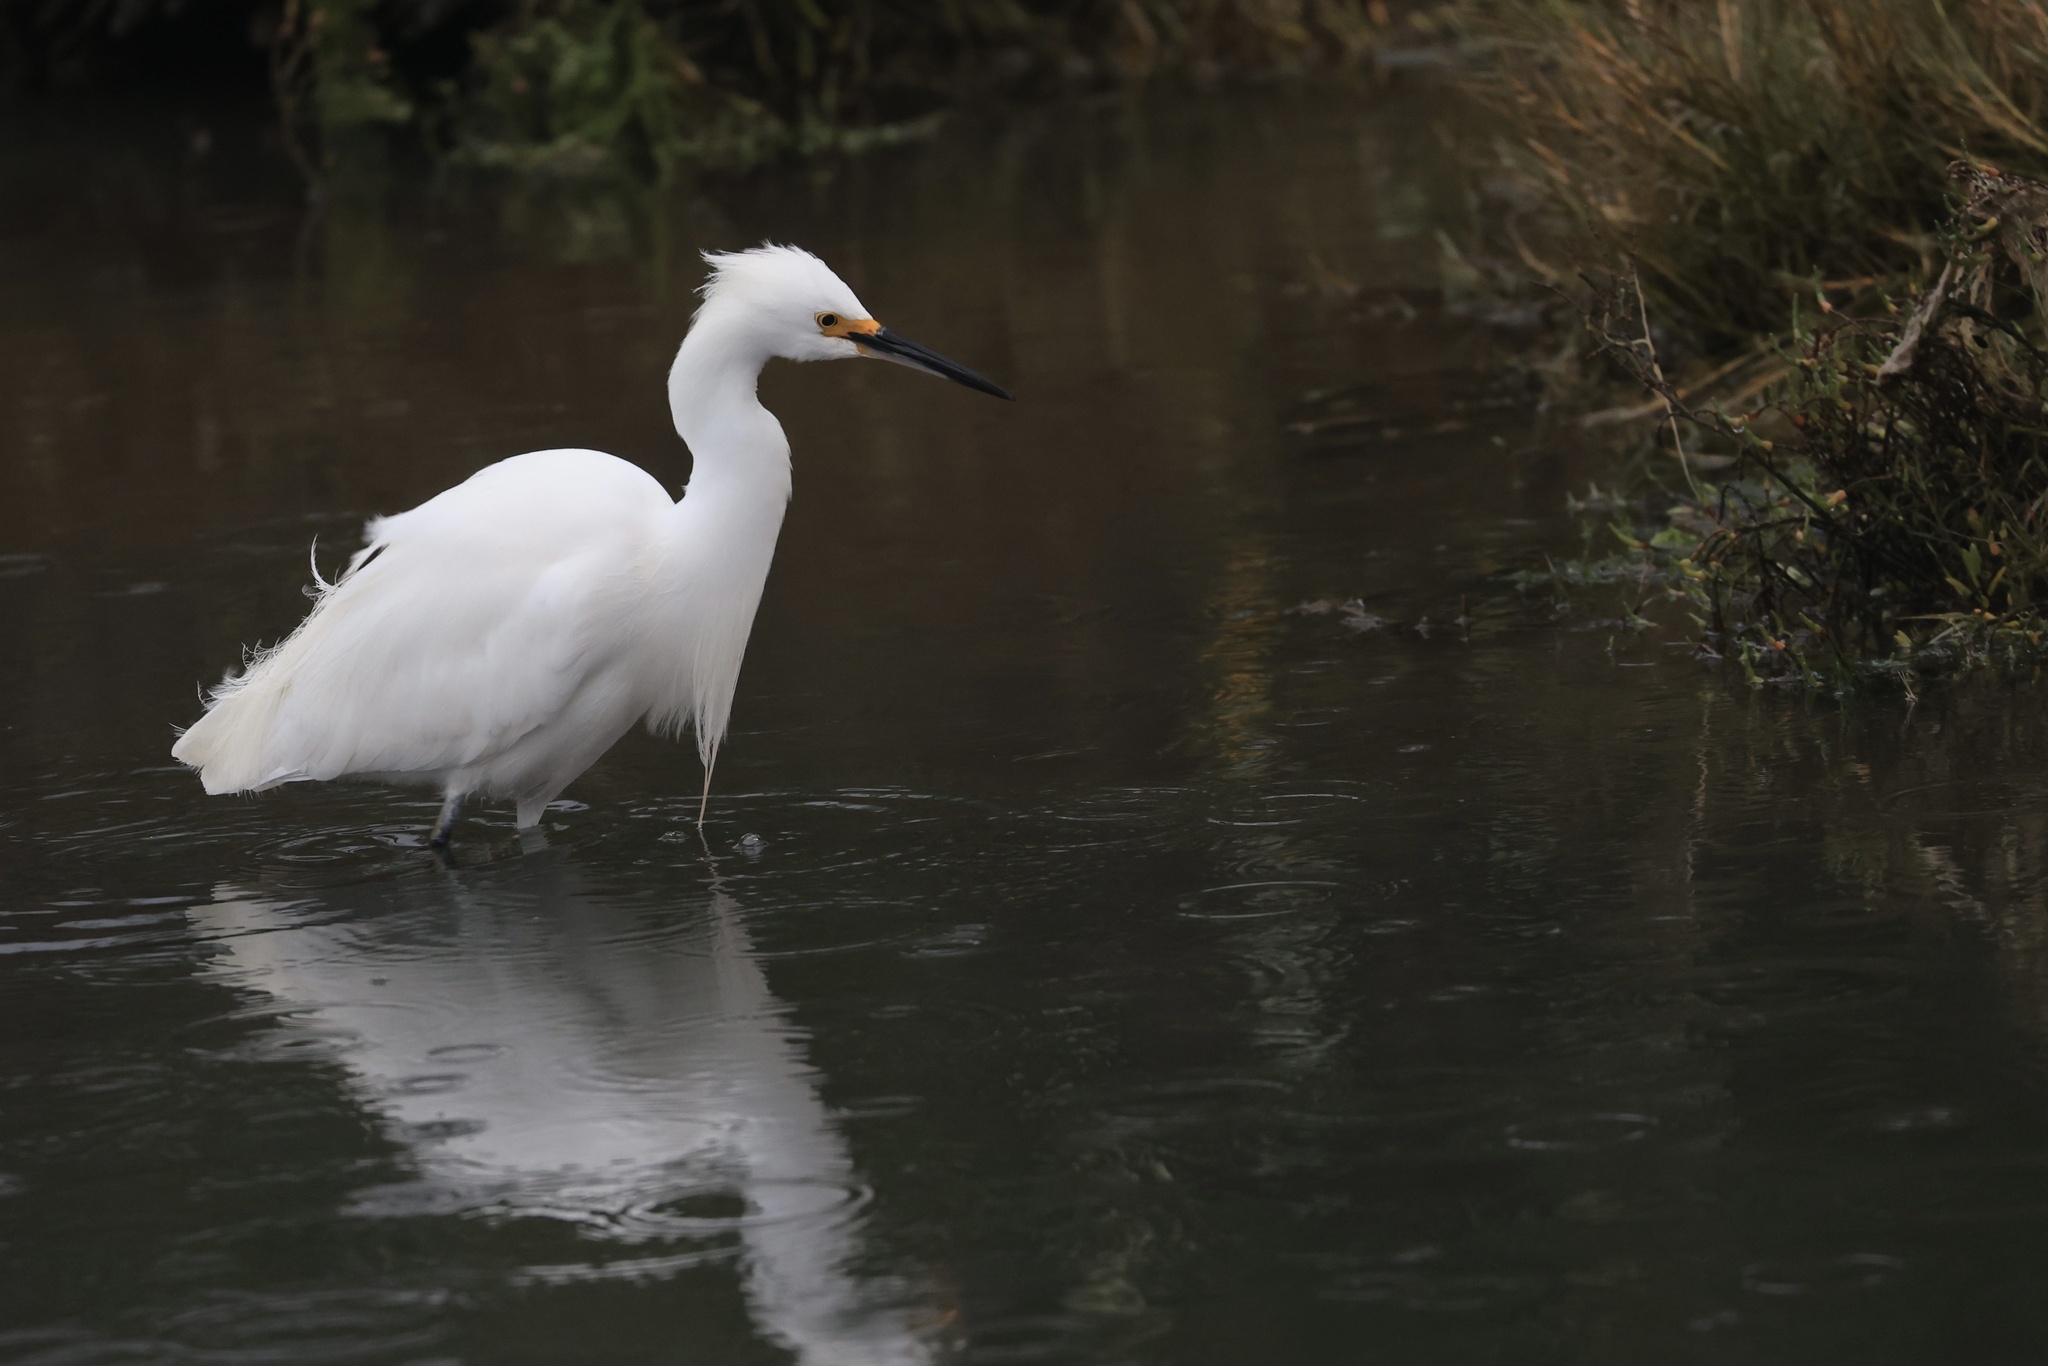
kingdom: Animalia
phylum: Chordata
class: Aves
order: Pelecaniformes
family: Ardeidae
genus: Egretta
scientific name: Egretta thula
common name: Snowy egret
